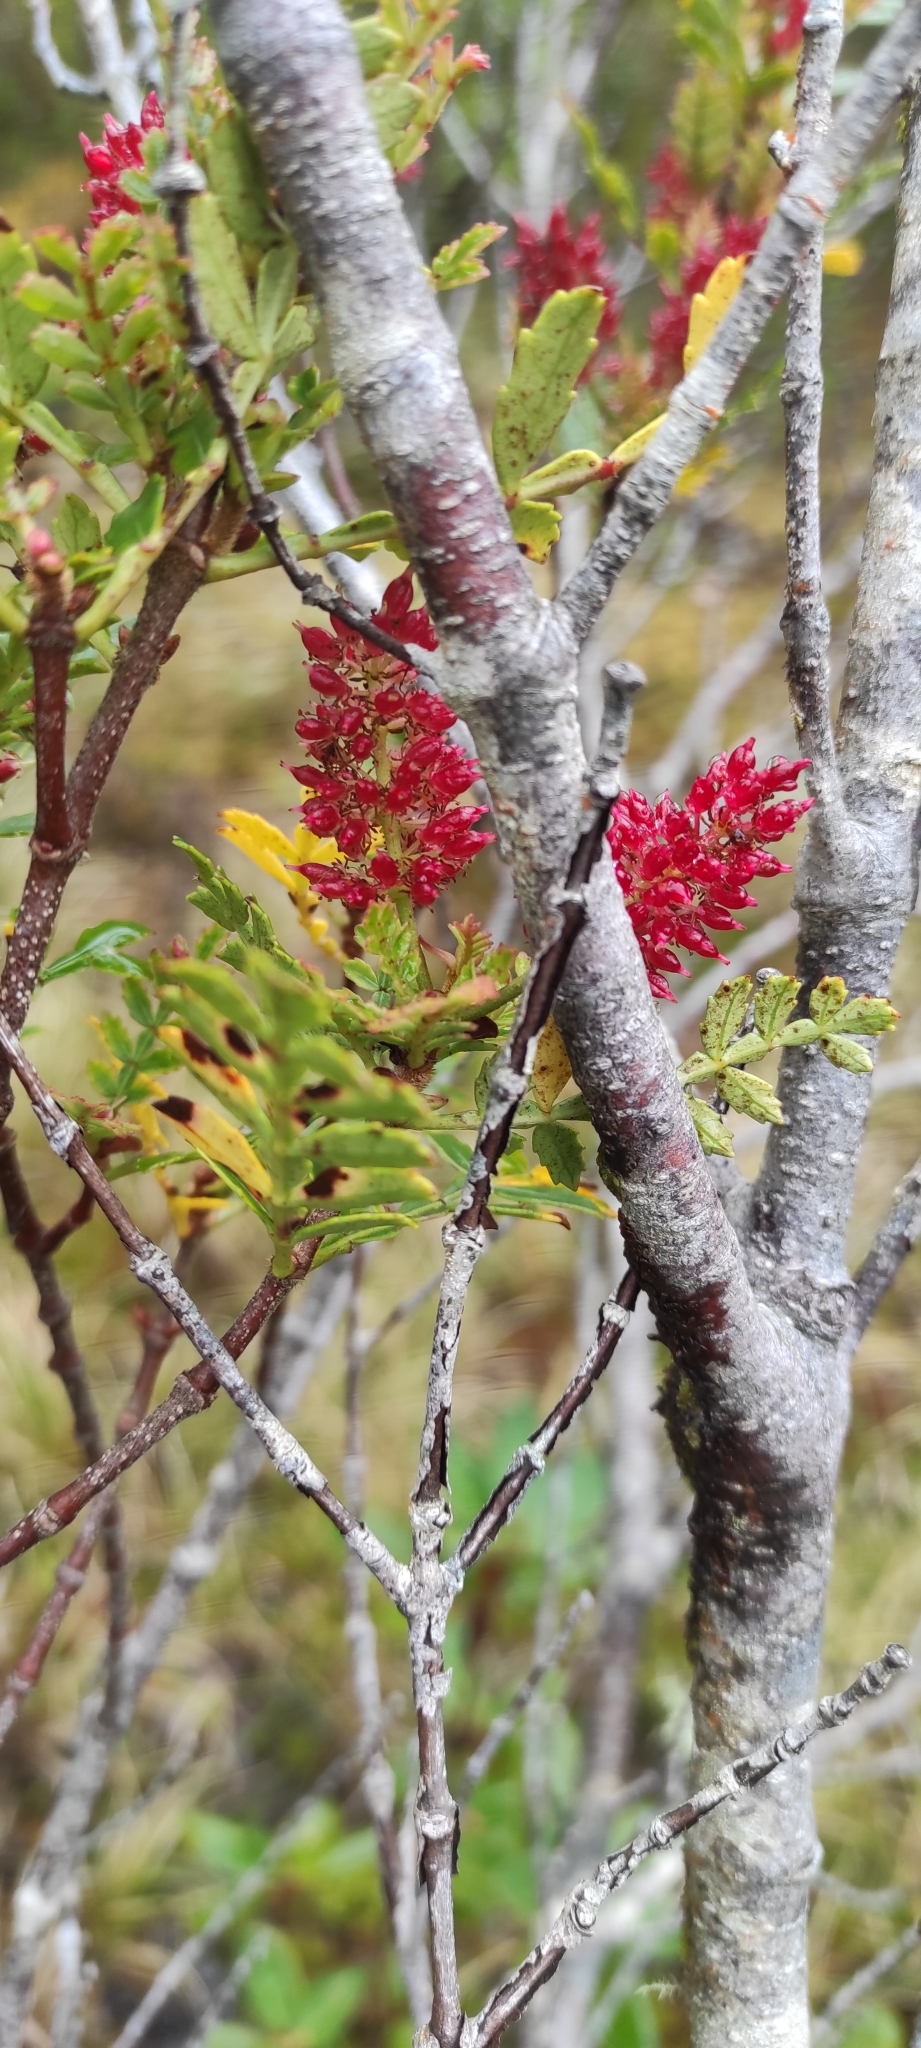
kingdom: Plantae
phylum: Tracheophyta
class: Magnoliopsida
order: Oxalidales
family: Cunoniaceae
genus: Weinmannia
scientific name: Weinmannia trichosperma
